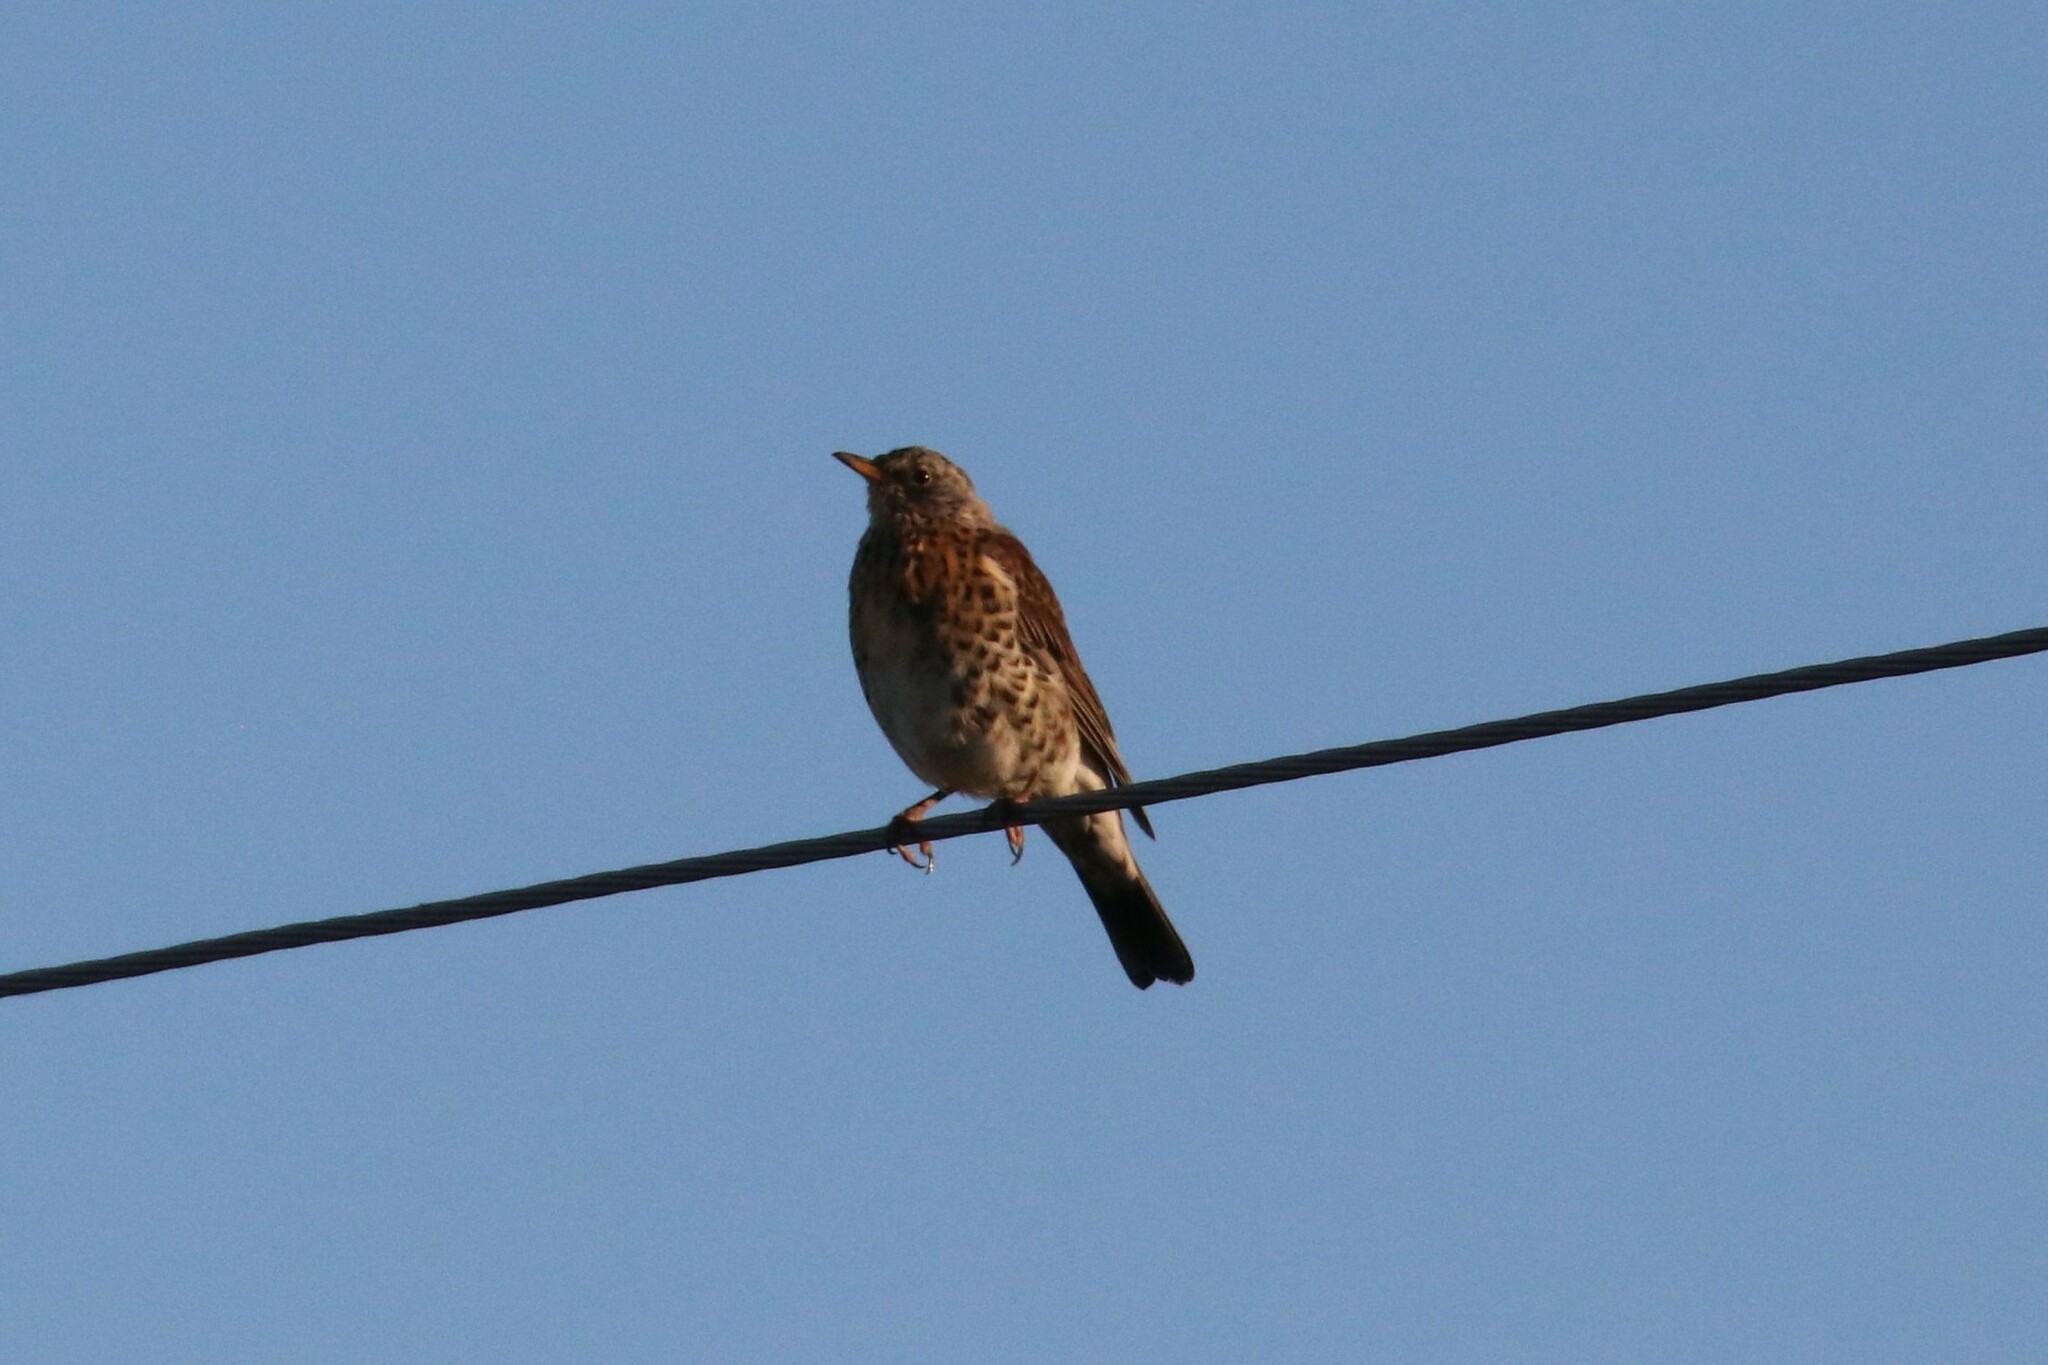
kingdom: Animalia
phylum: Chordata
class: Aves
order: Passeriformes
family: Turdidae
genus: Turdus
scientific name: Turdus pilaris
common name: Fieldfare
